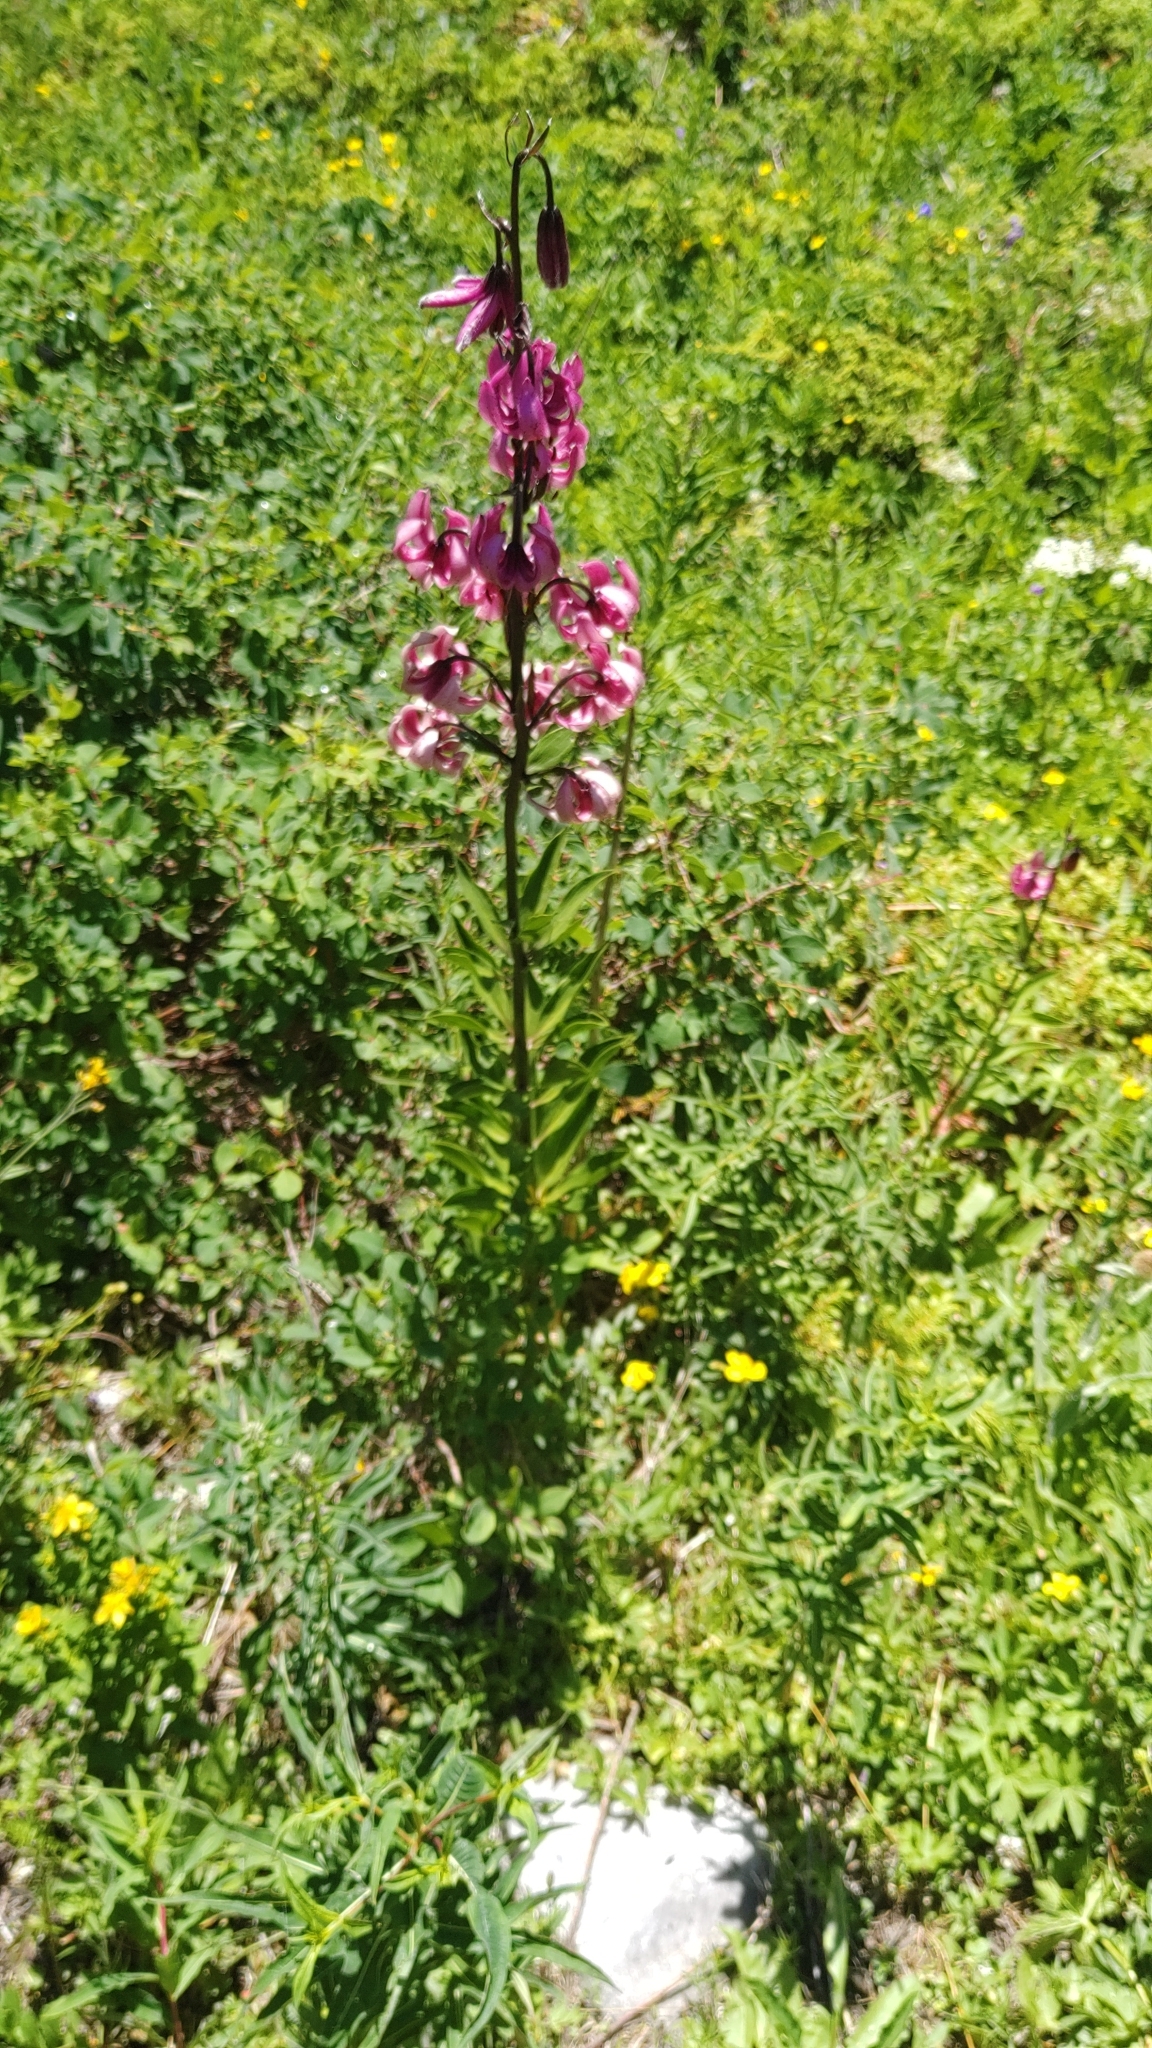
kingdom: Plantae
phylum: Tracheophyta
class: Liliopsida
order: Liliales
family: Liliaceae
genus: Lilium
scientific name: Lilium martagon
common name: Martagon lily
